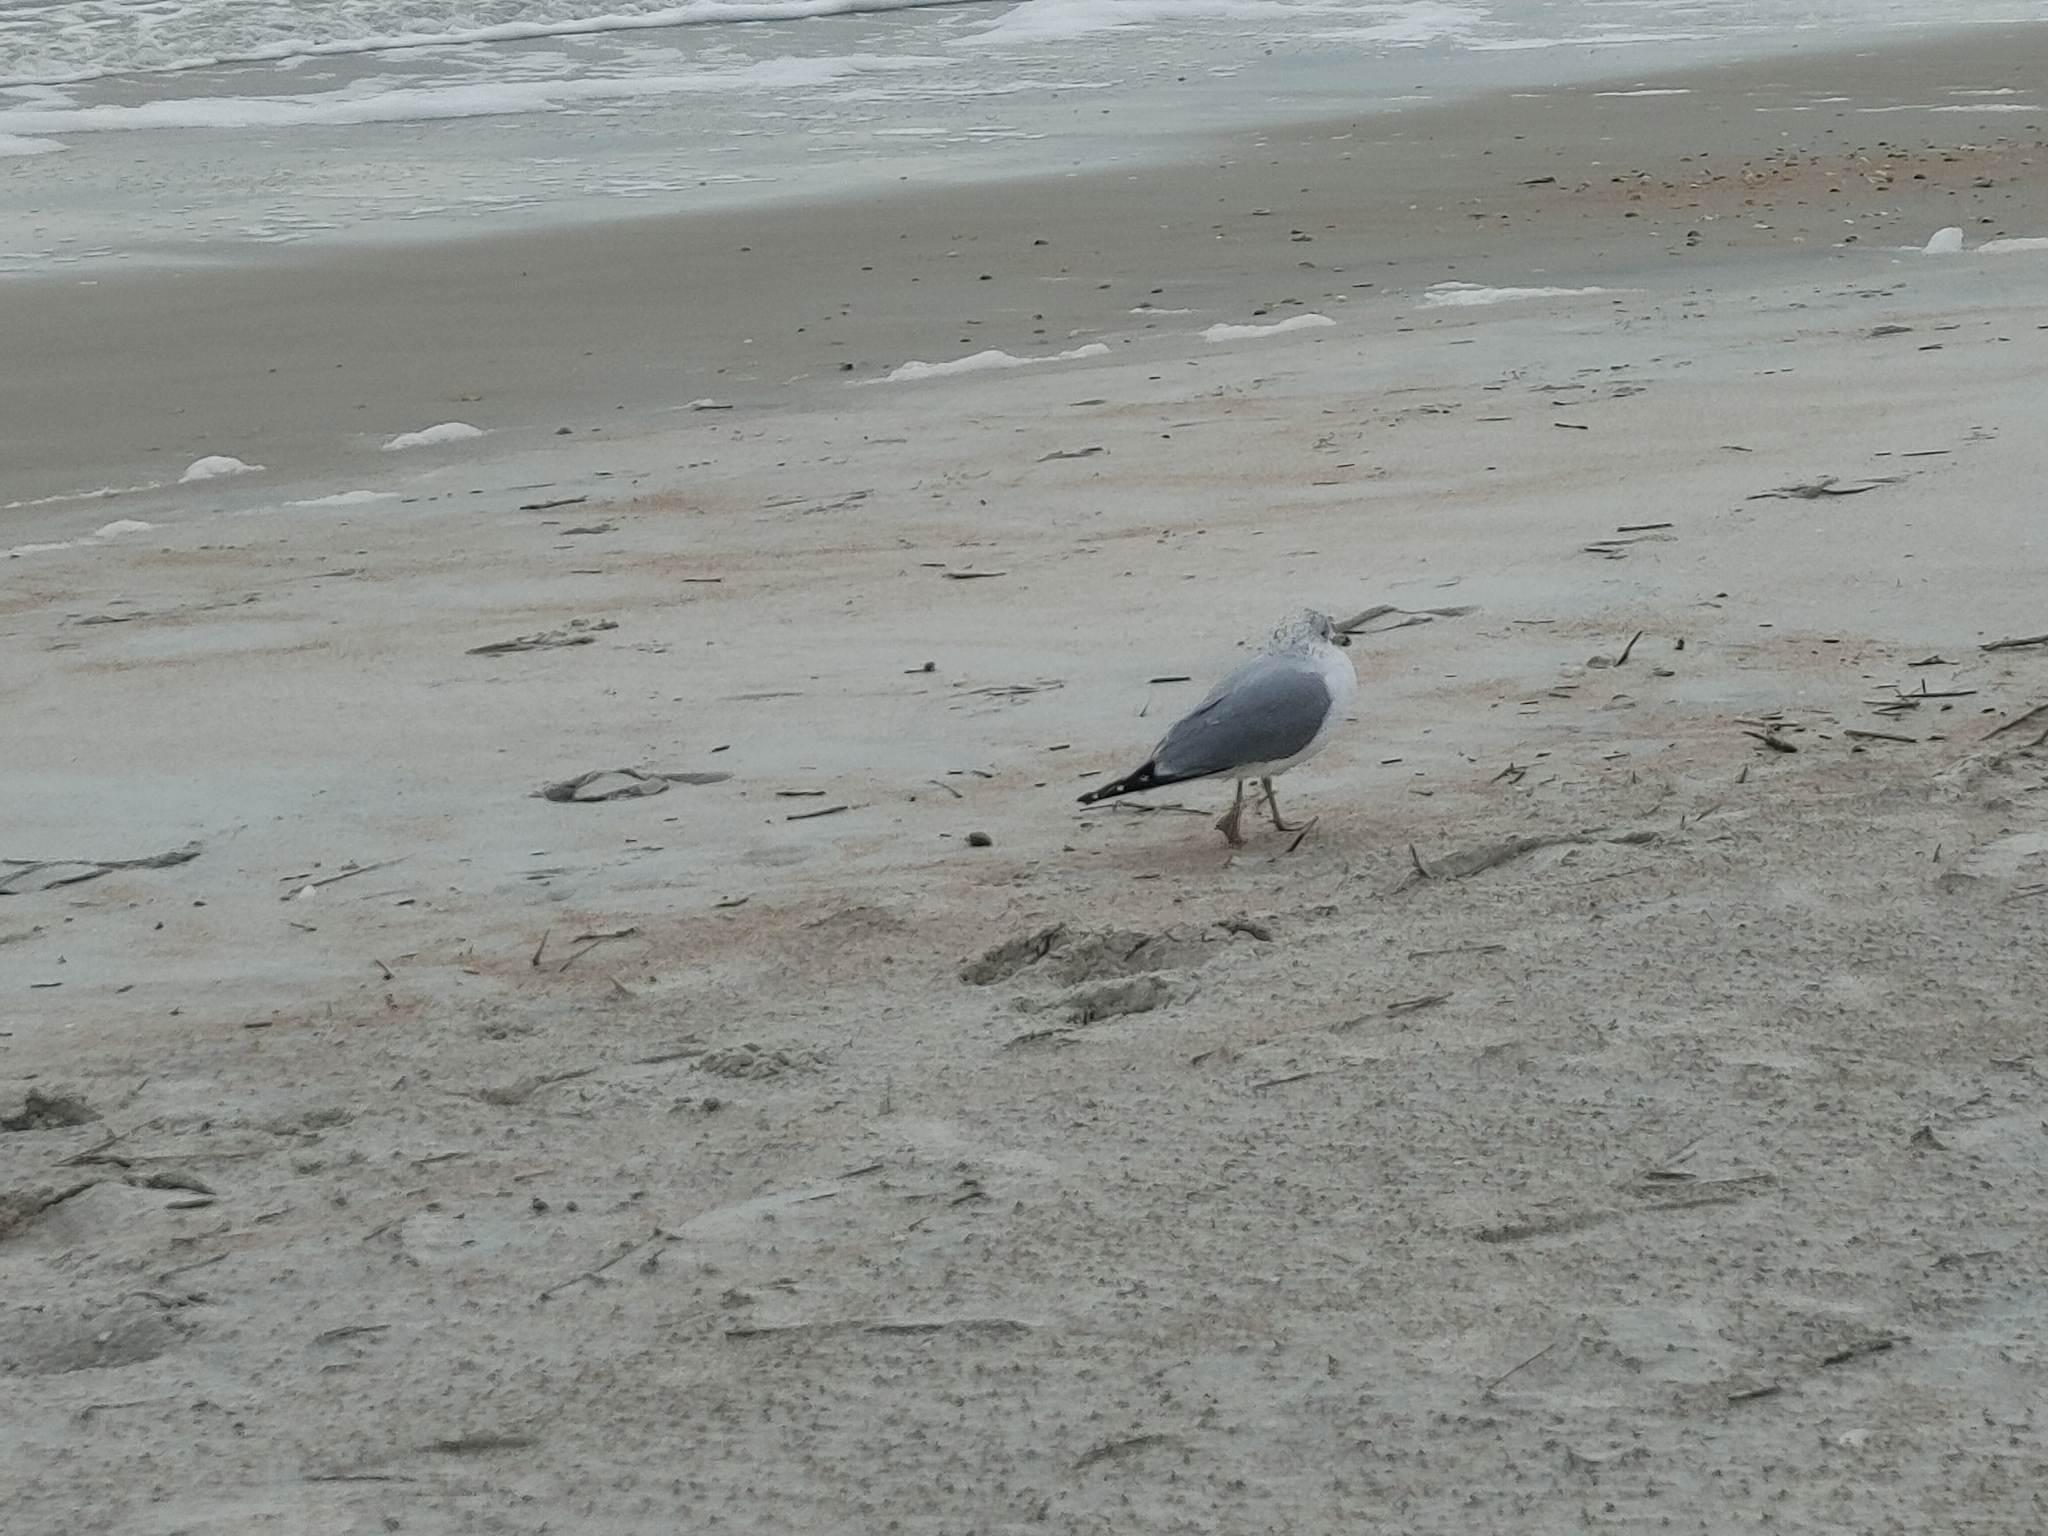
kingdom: Animalia
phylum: Chordata
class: Aves
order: Charadriiformes
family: Laridae
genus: Larus
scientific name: Larus delawarensis
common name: Ring-billed gull
